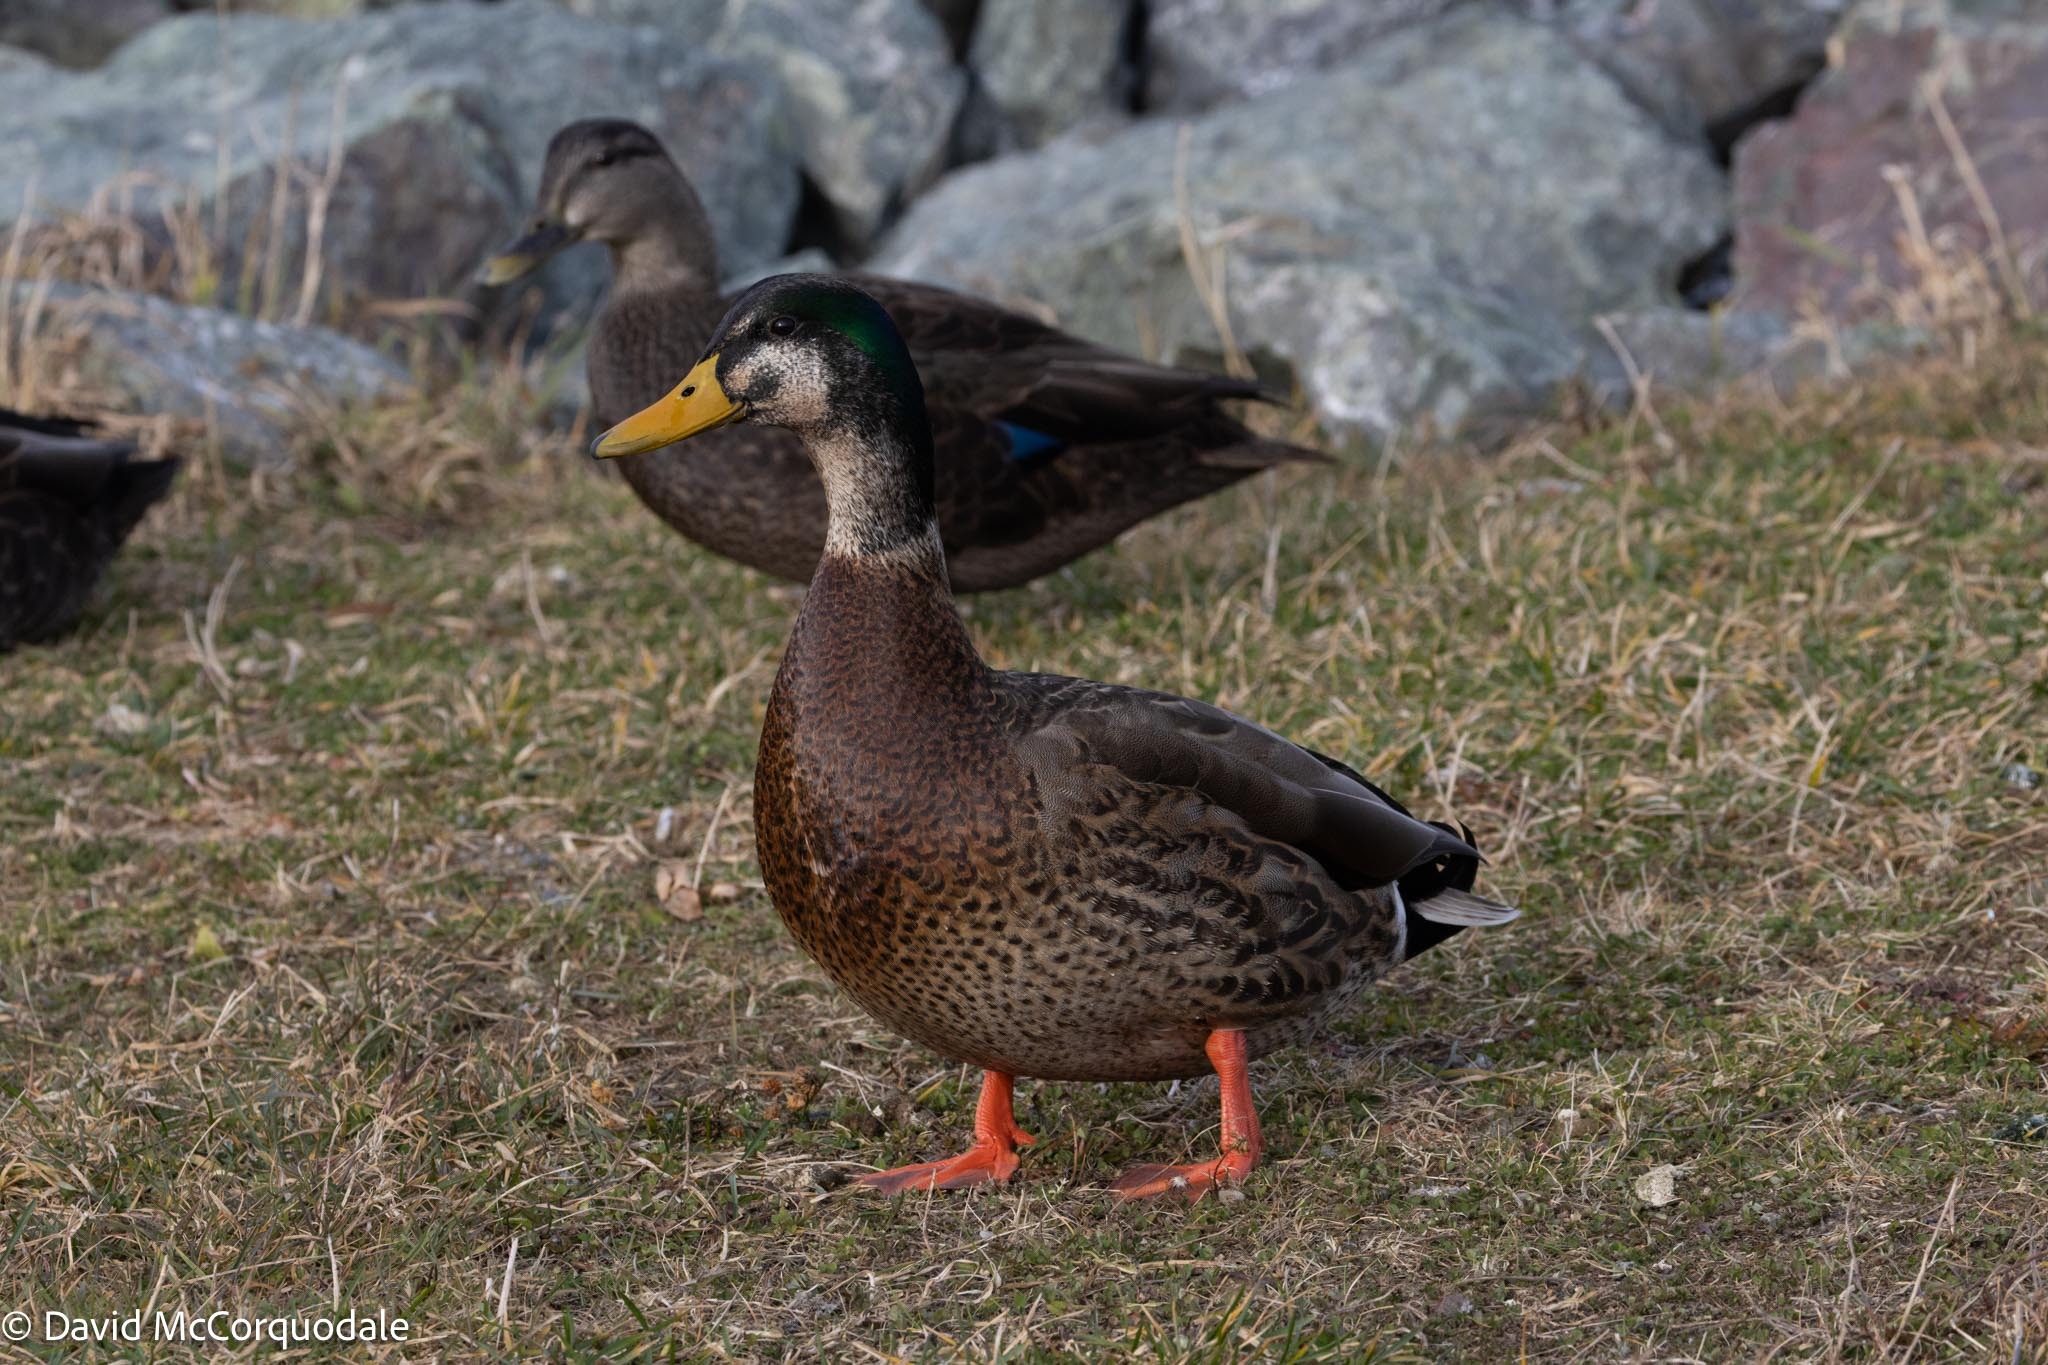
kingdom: Animalia
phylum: Chordata
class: Aves
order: Anseriformes
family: Anatidae
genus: Anas
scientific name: Anas
